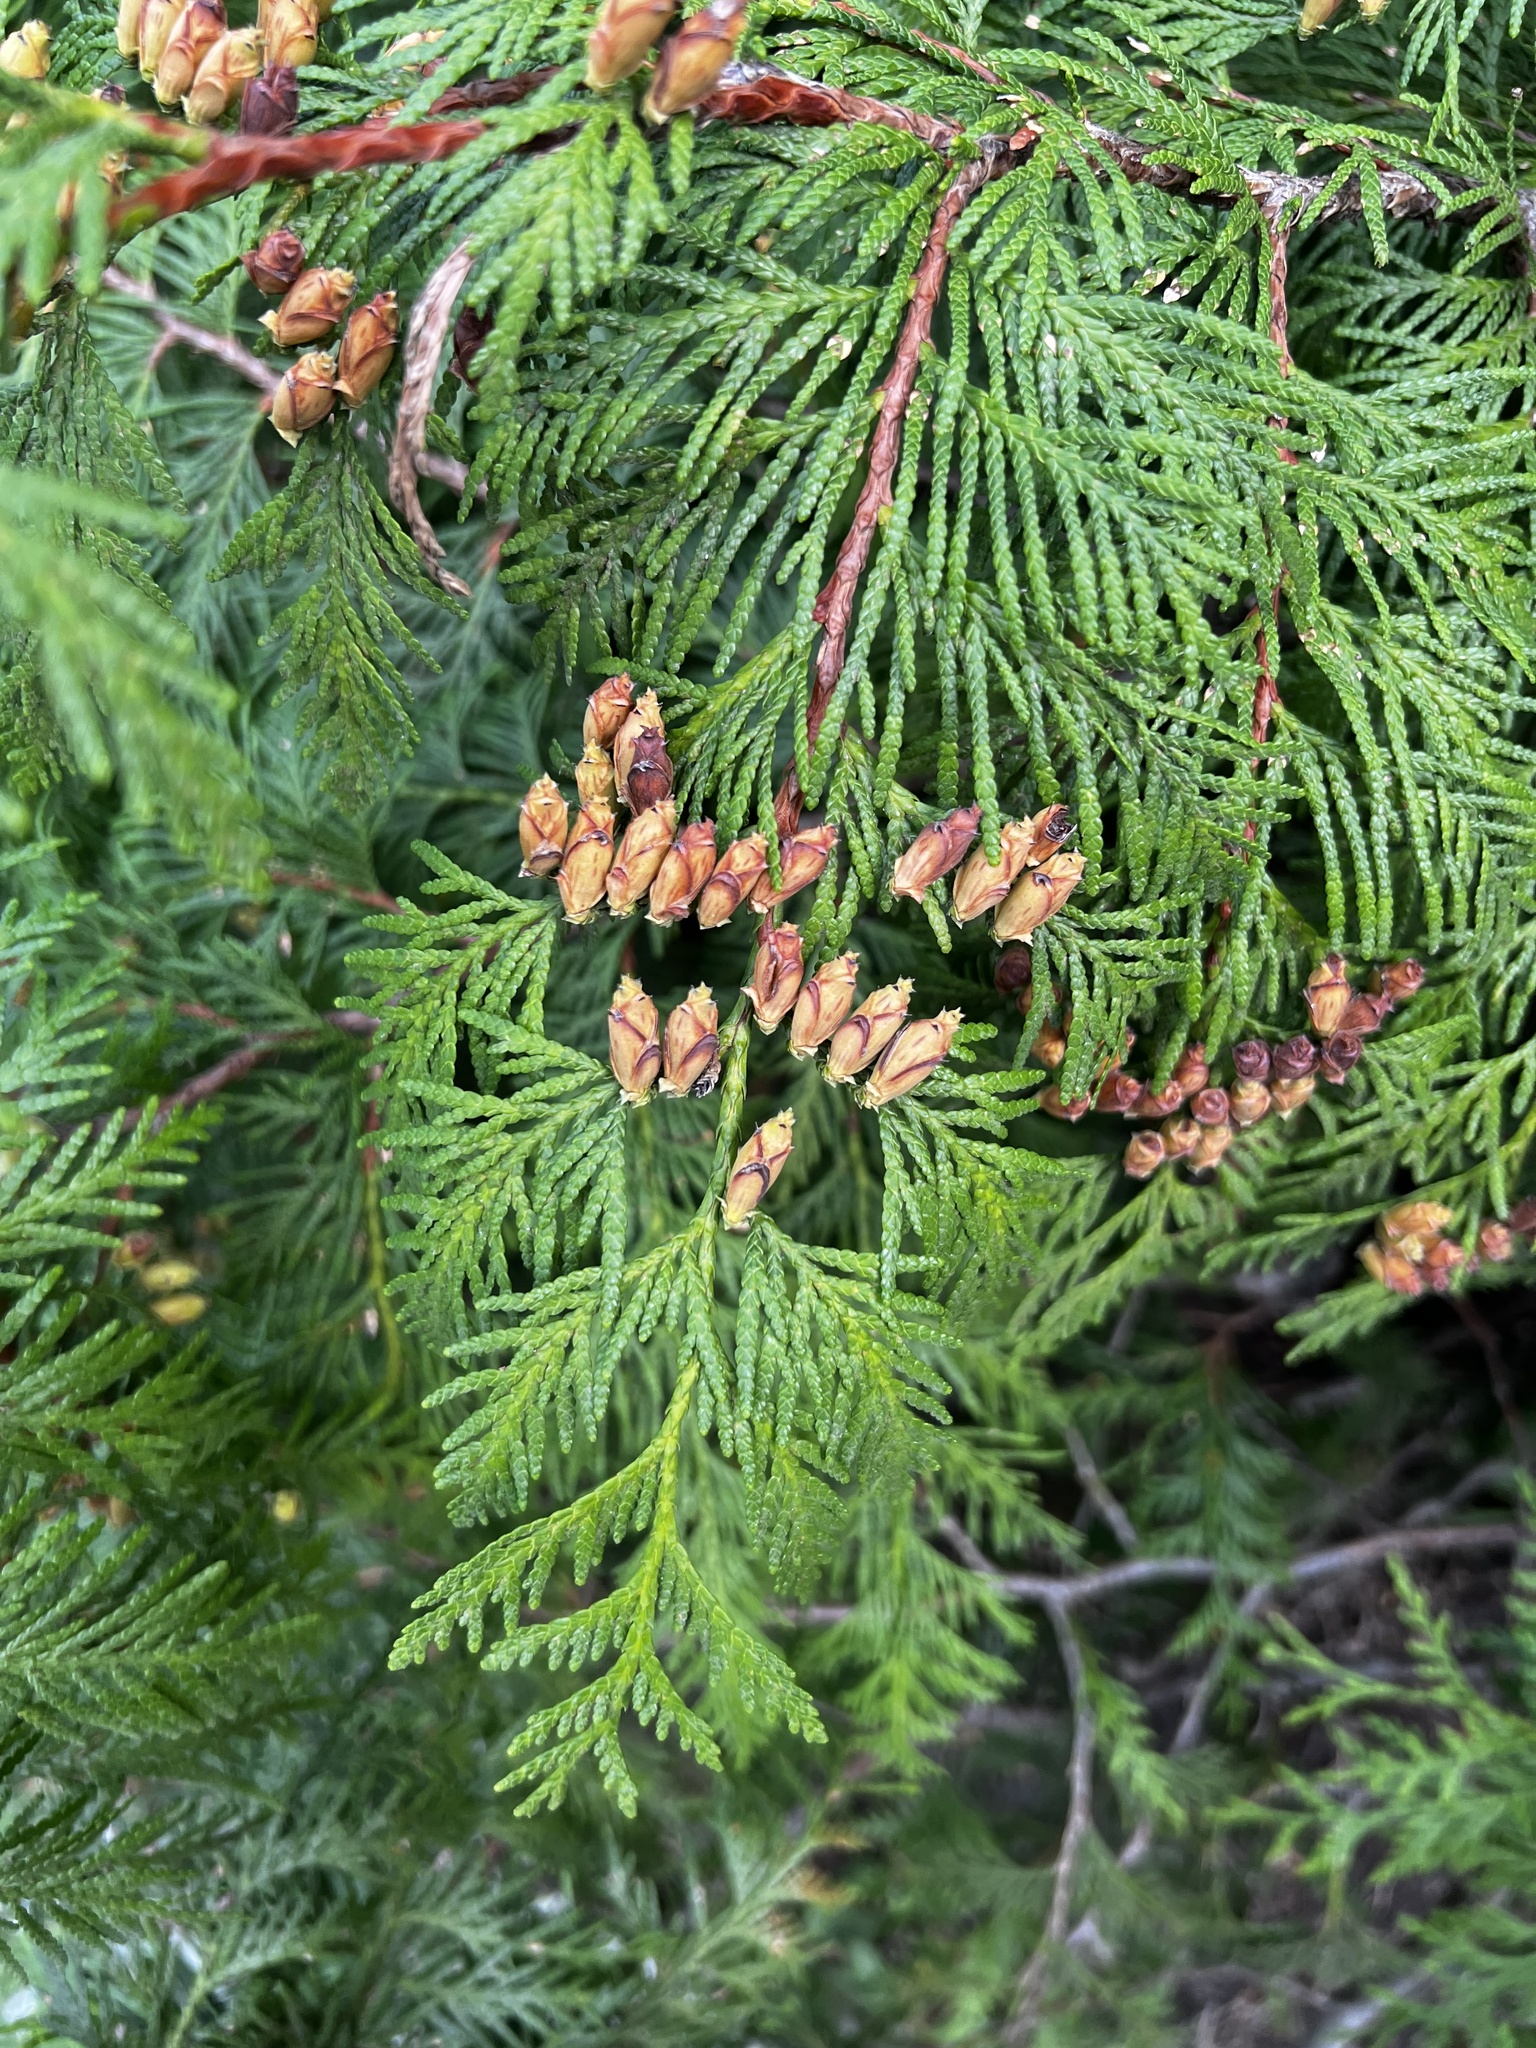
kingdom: Plantae
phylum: Tracheophyta
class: Pinopsida
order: Pinales
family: Cupressaceae
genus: Thuja
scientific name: Thuja plicata
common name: Western red-cedar
